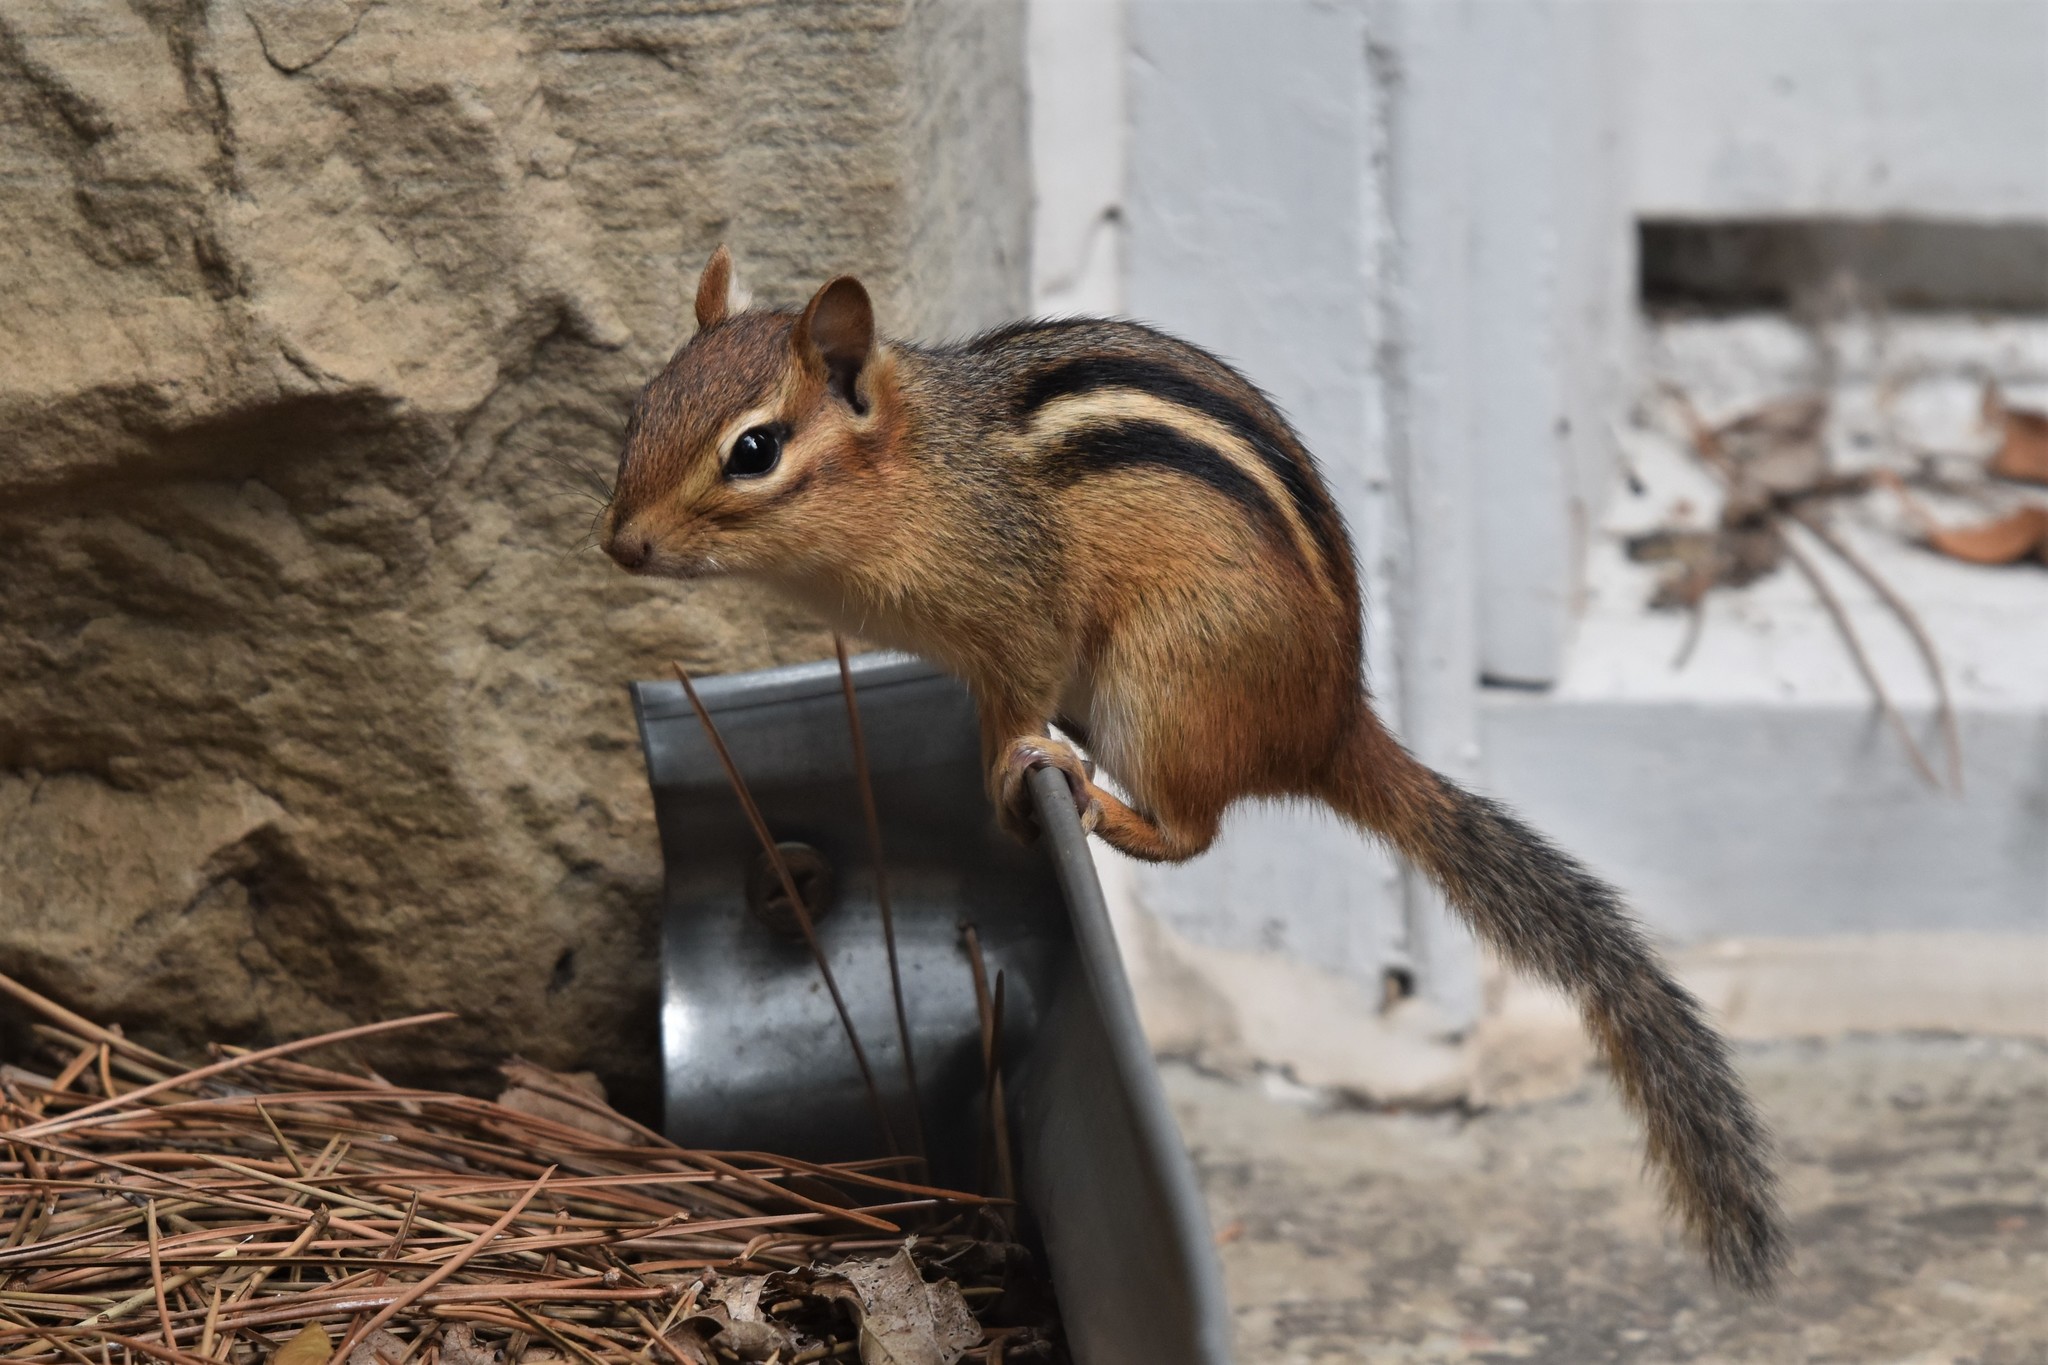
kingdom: Animalia
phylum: Chordata
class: Mammalia
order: Rodentia
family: Sciuridae
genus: Tamias
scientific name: Tamias striatus
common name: Eastern chipmunk
